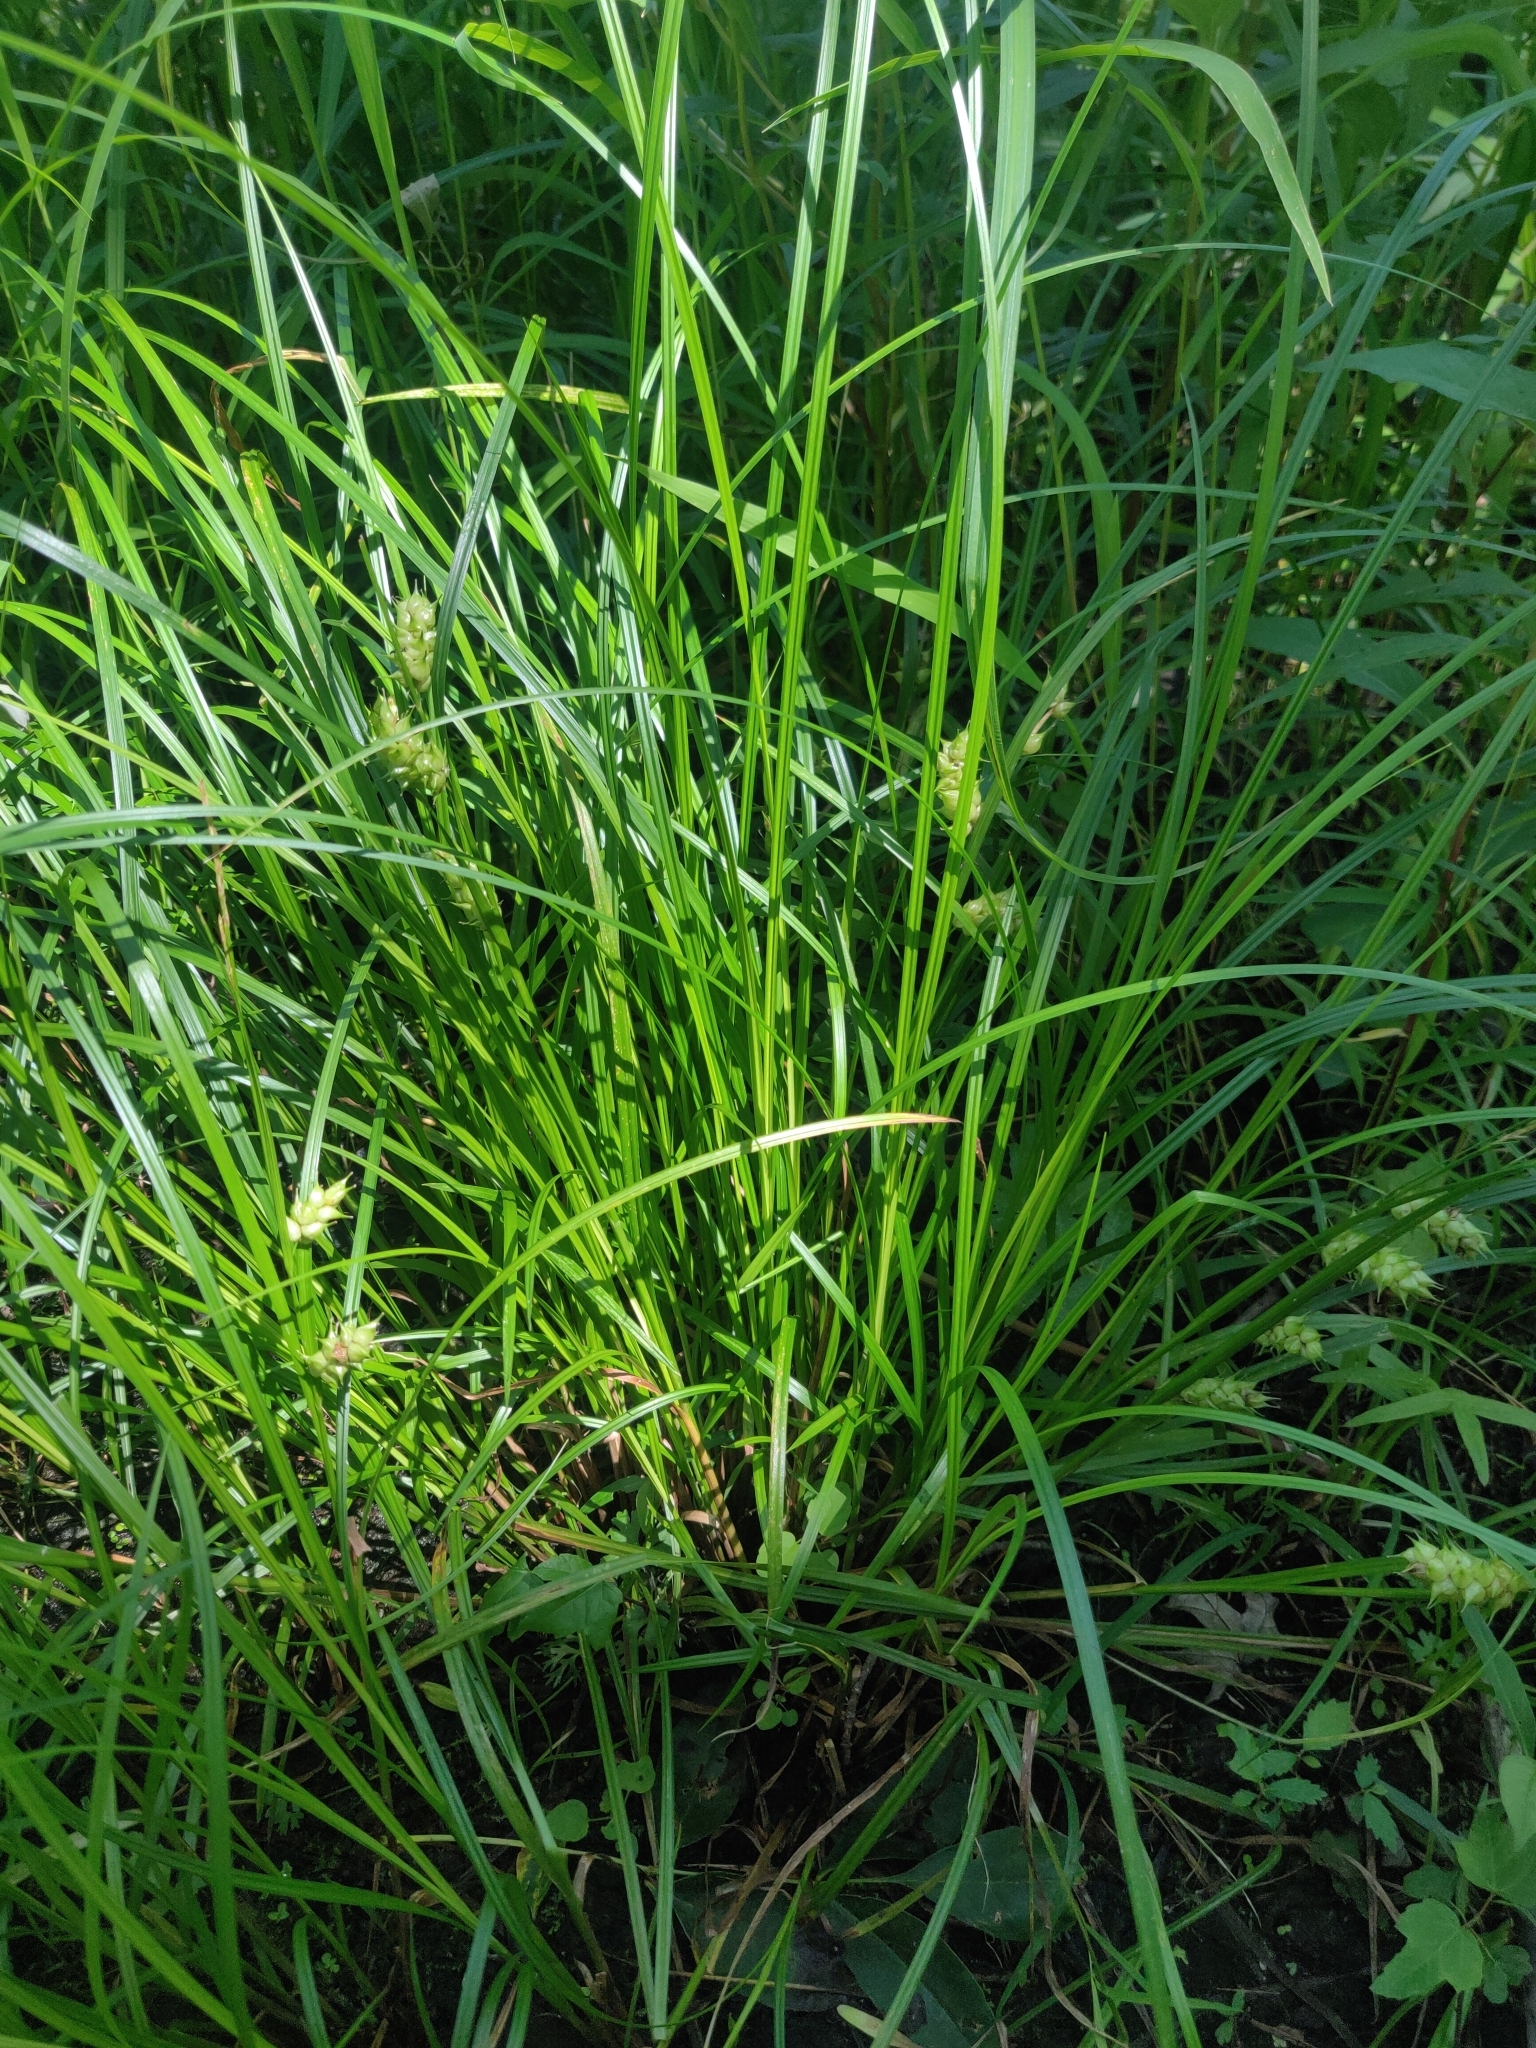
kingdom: Plantae
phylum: Tracheophyta
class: Liliopsida
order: Poales
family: Cyperaceae
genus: Carex
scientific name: Carex tuckermanii
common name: Tuckerman's sedge
